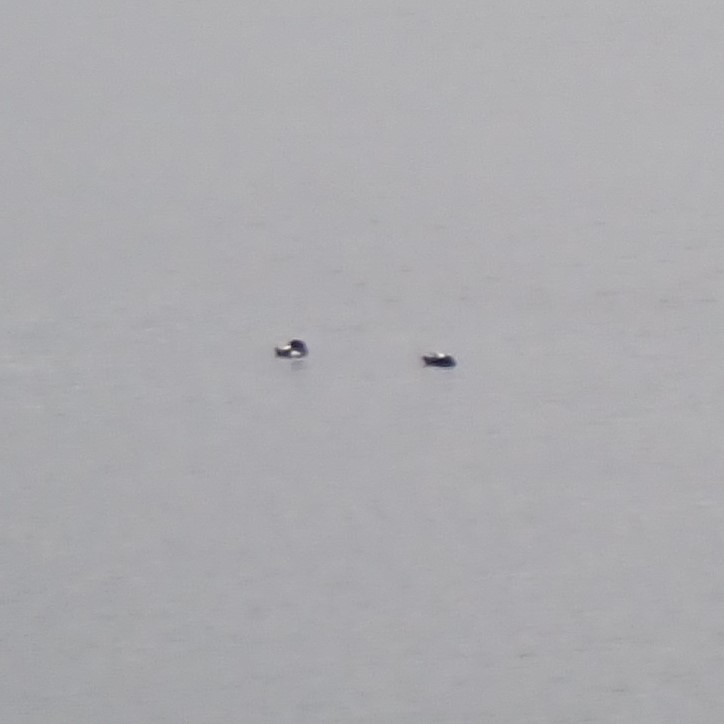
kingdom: Animalia
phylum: Chordata
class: Aves
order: Charadriiformes
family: Alcidae
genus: Cepphus
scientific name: Cepphus columba
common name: Pigeon guillemot
